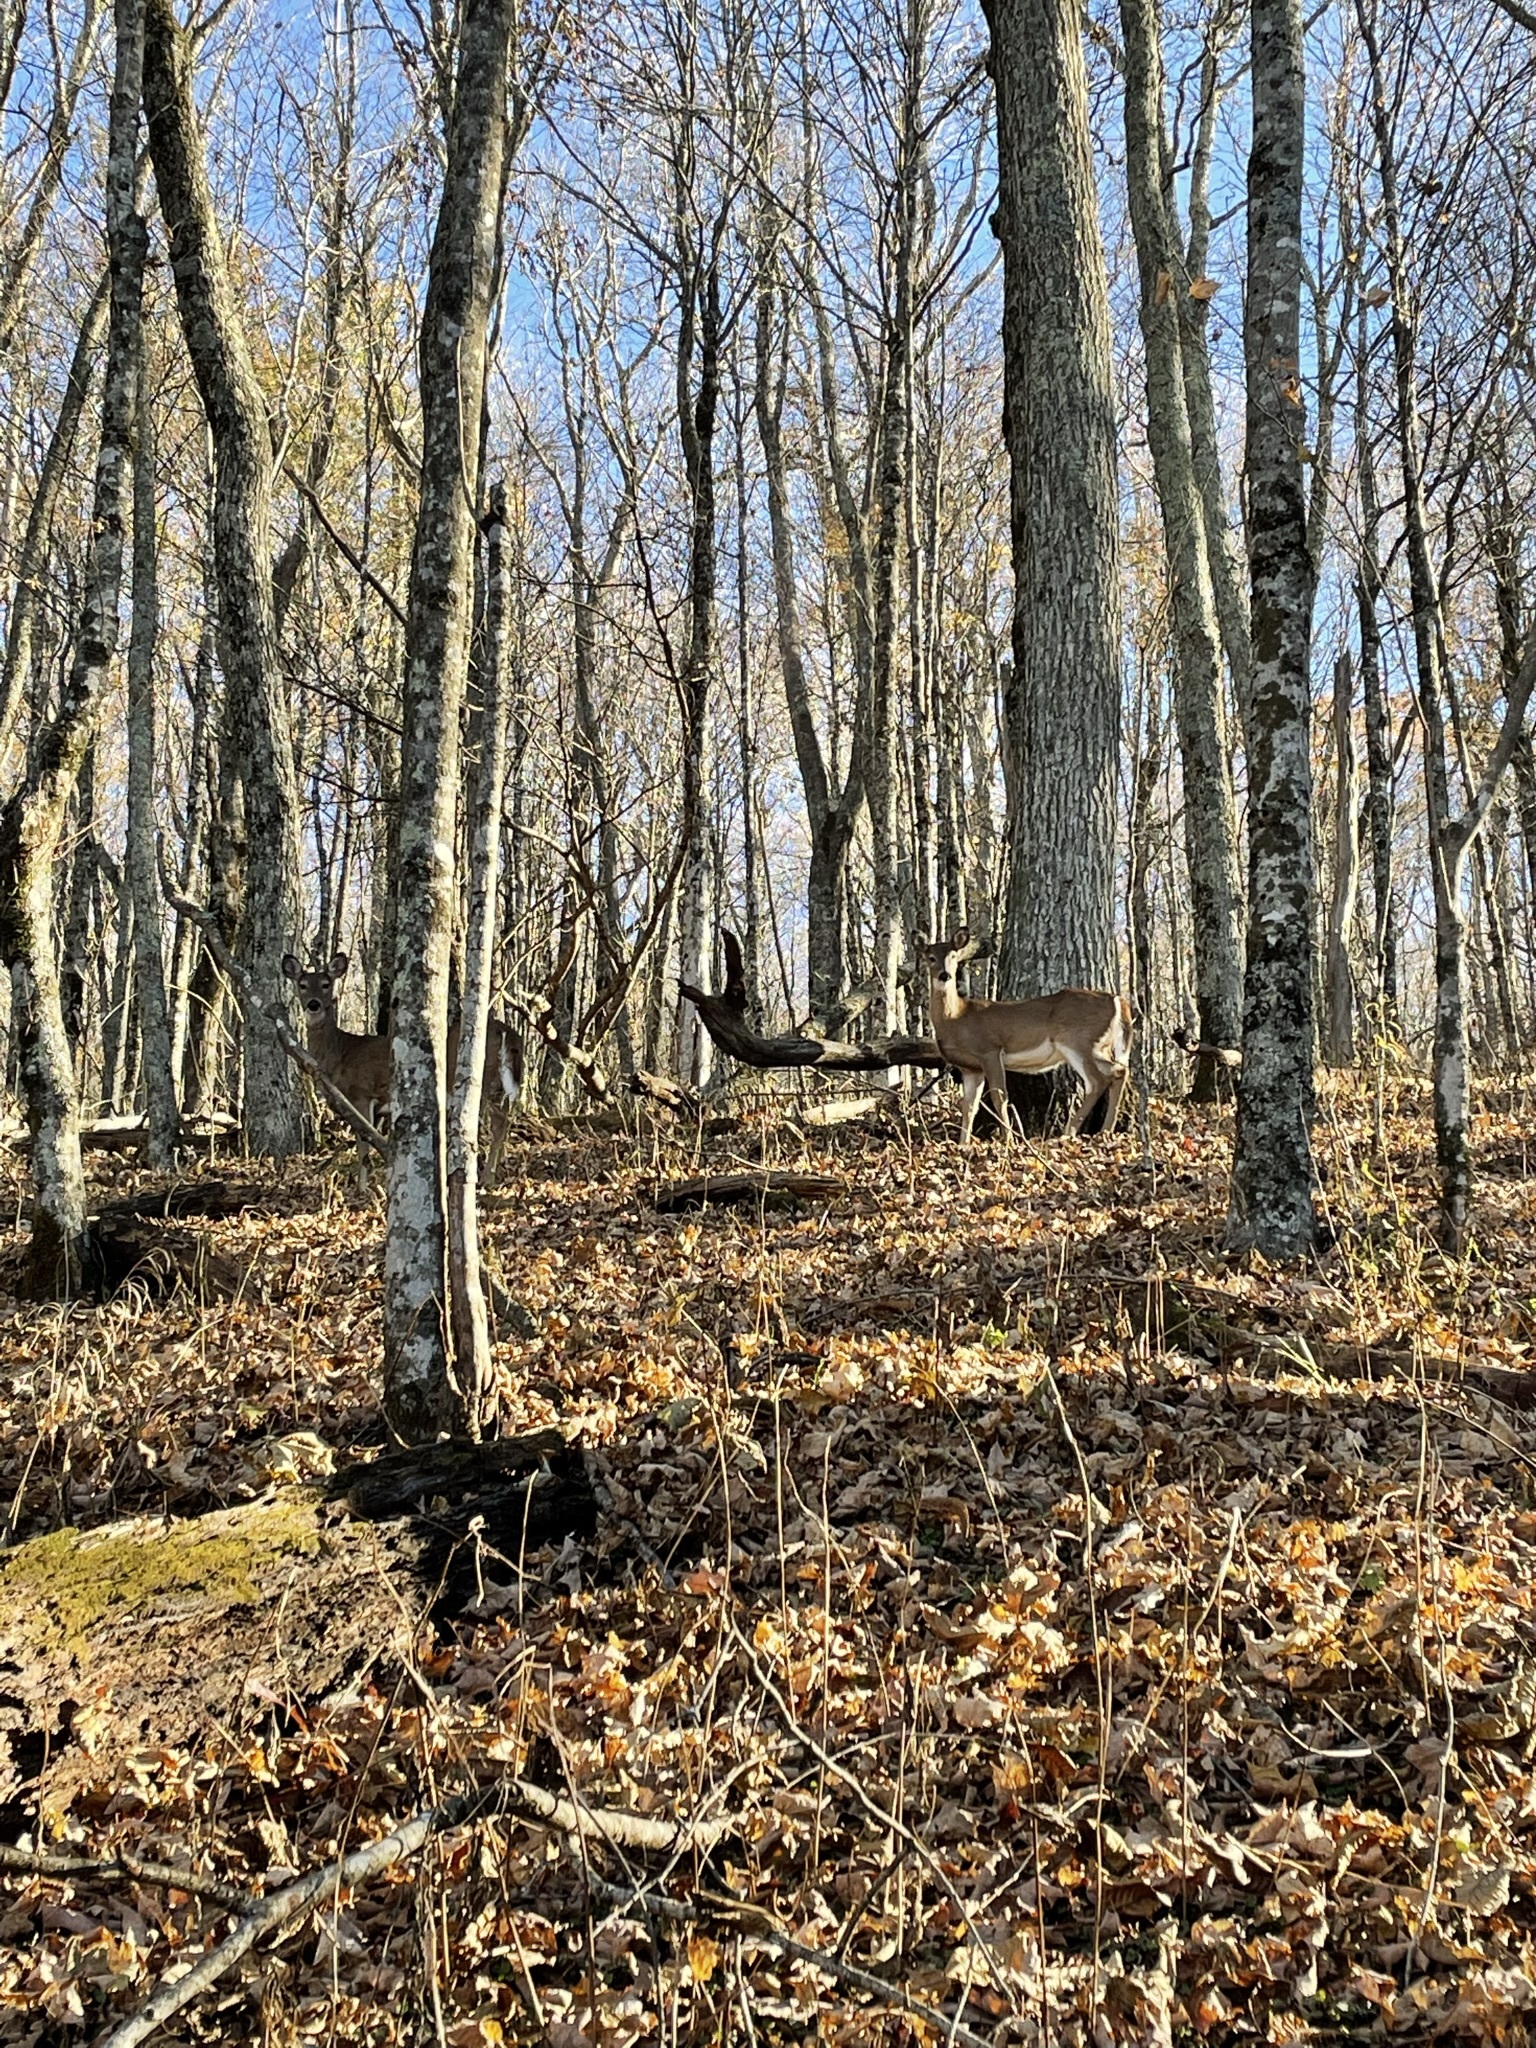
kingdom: Animalia
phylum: Chordata
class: Mammalia
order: Artiodactyla
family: Cervidae
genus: Odocoileus
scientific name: Odocoileus virginianus
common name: White-tailed deer
